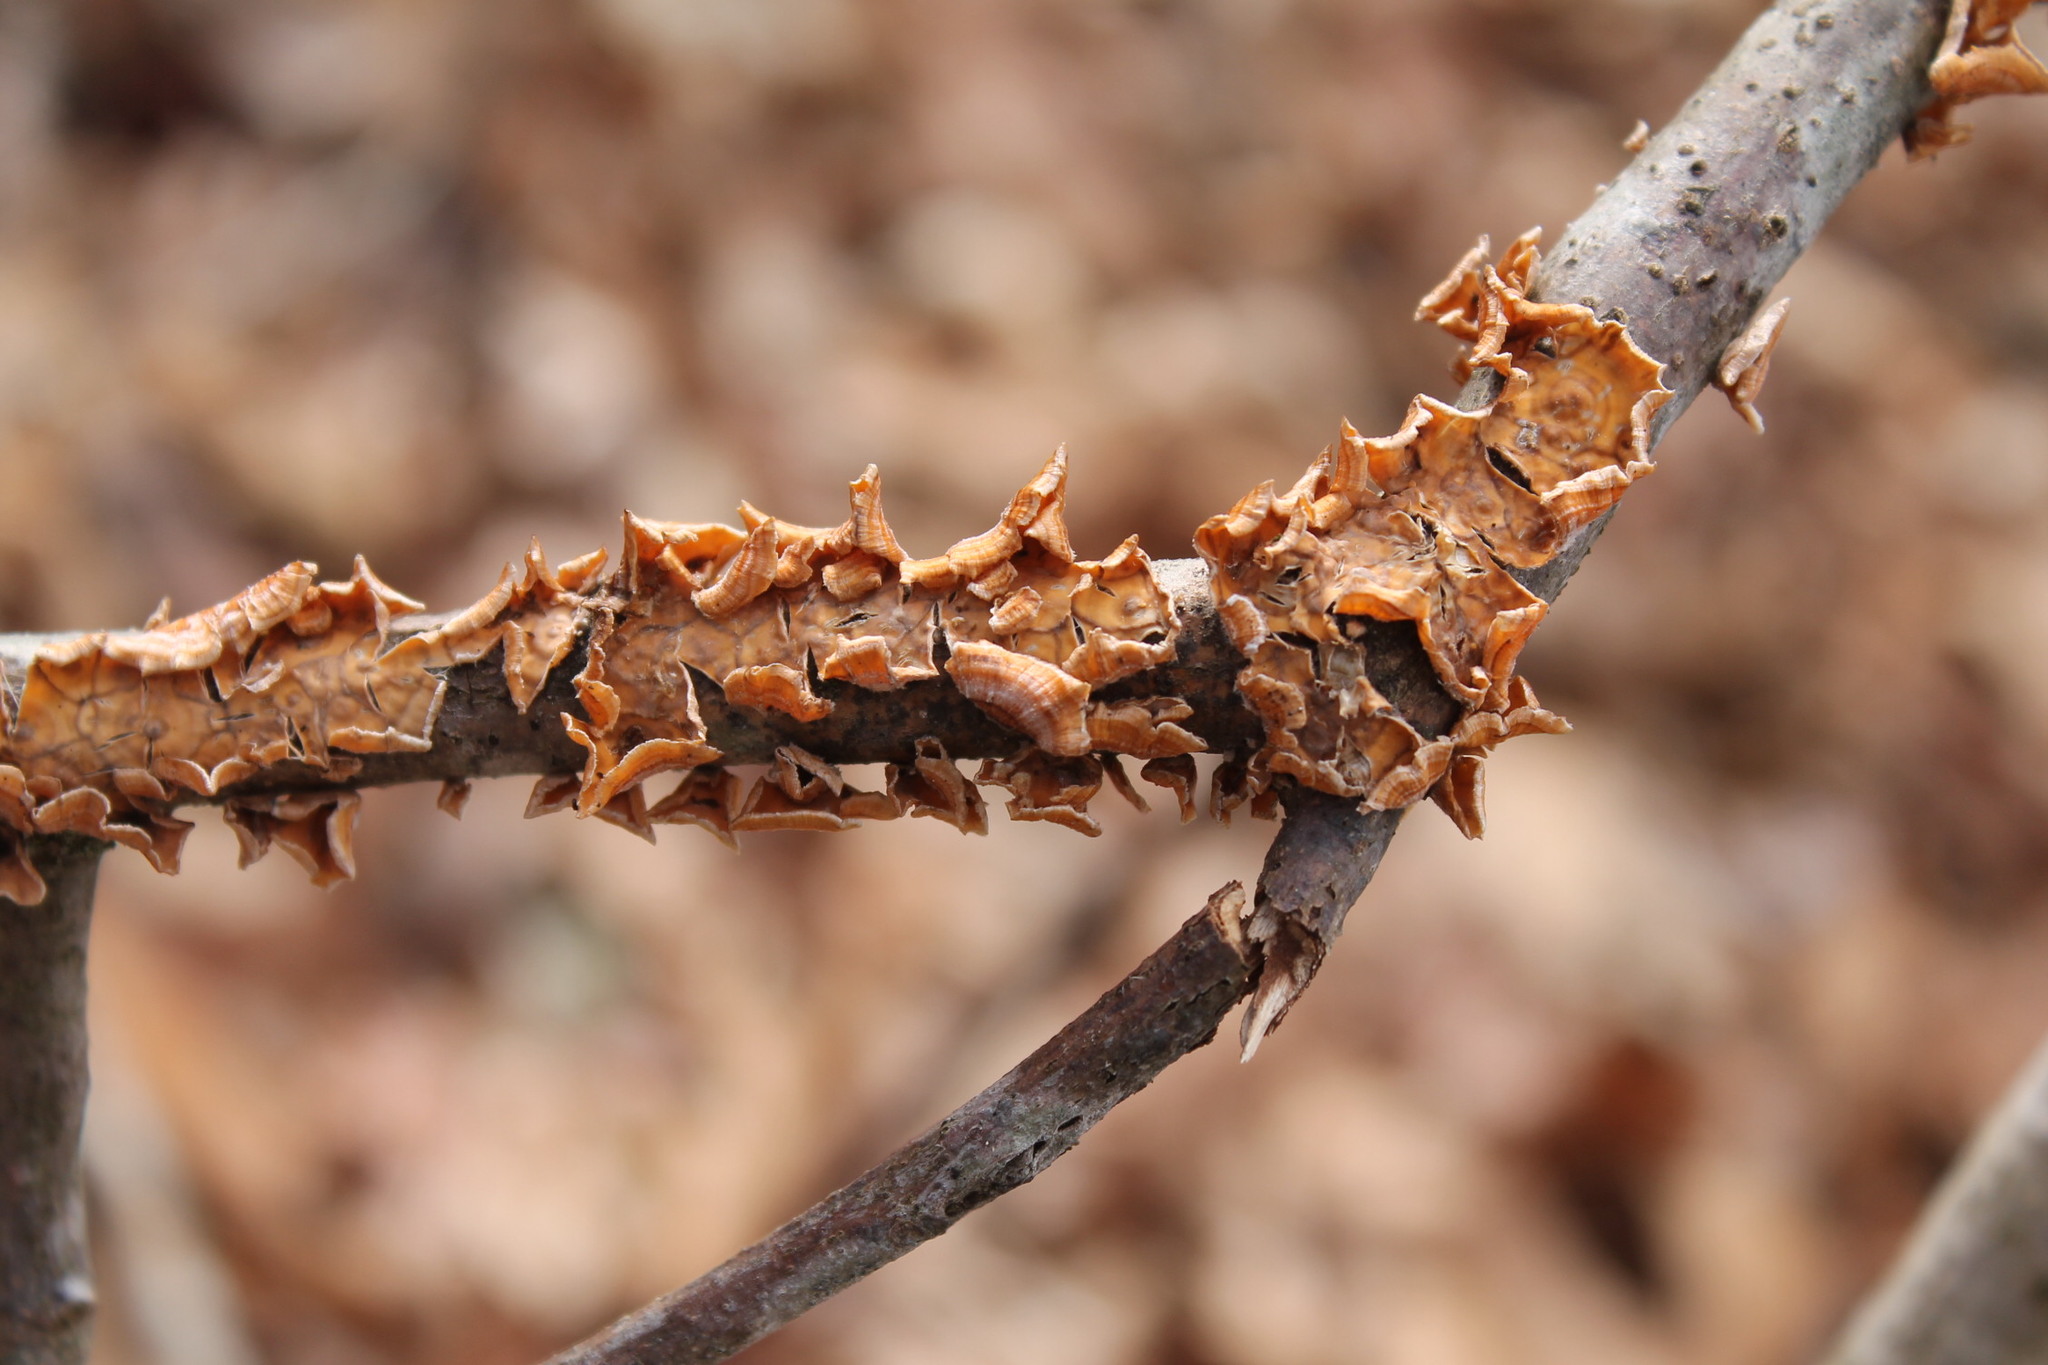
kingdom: Fungi
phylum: Basidiomycota
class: Agaricomycetes
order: Russulales
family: Stereaceae
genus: Stereum
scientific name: Stereum complicatum
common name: Crowded parchment
